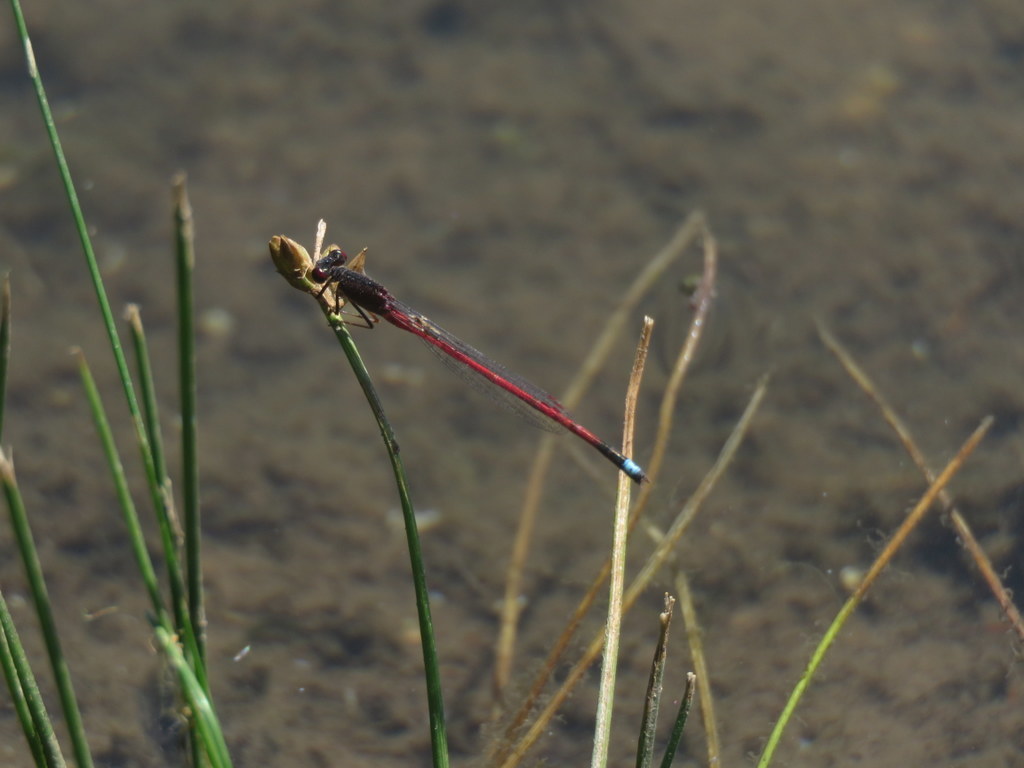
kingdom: Animalia
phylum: Arthropoda
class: Insecta
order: Odonata
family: Coenagrionidae
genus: Oxyagrion
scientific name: Oxyagrion rubidum
